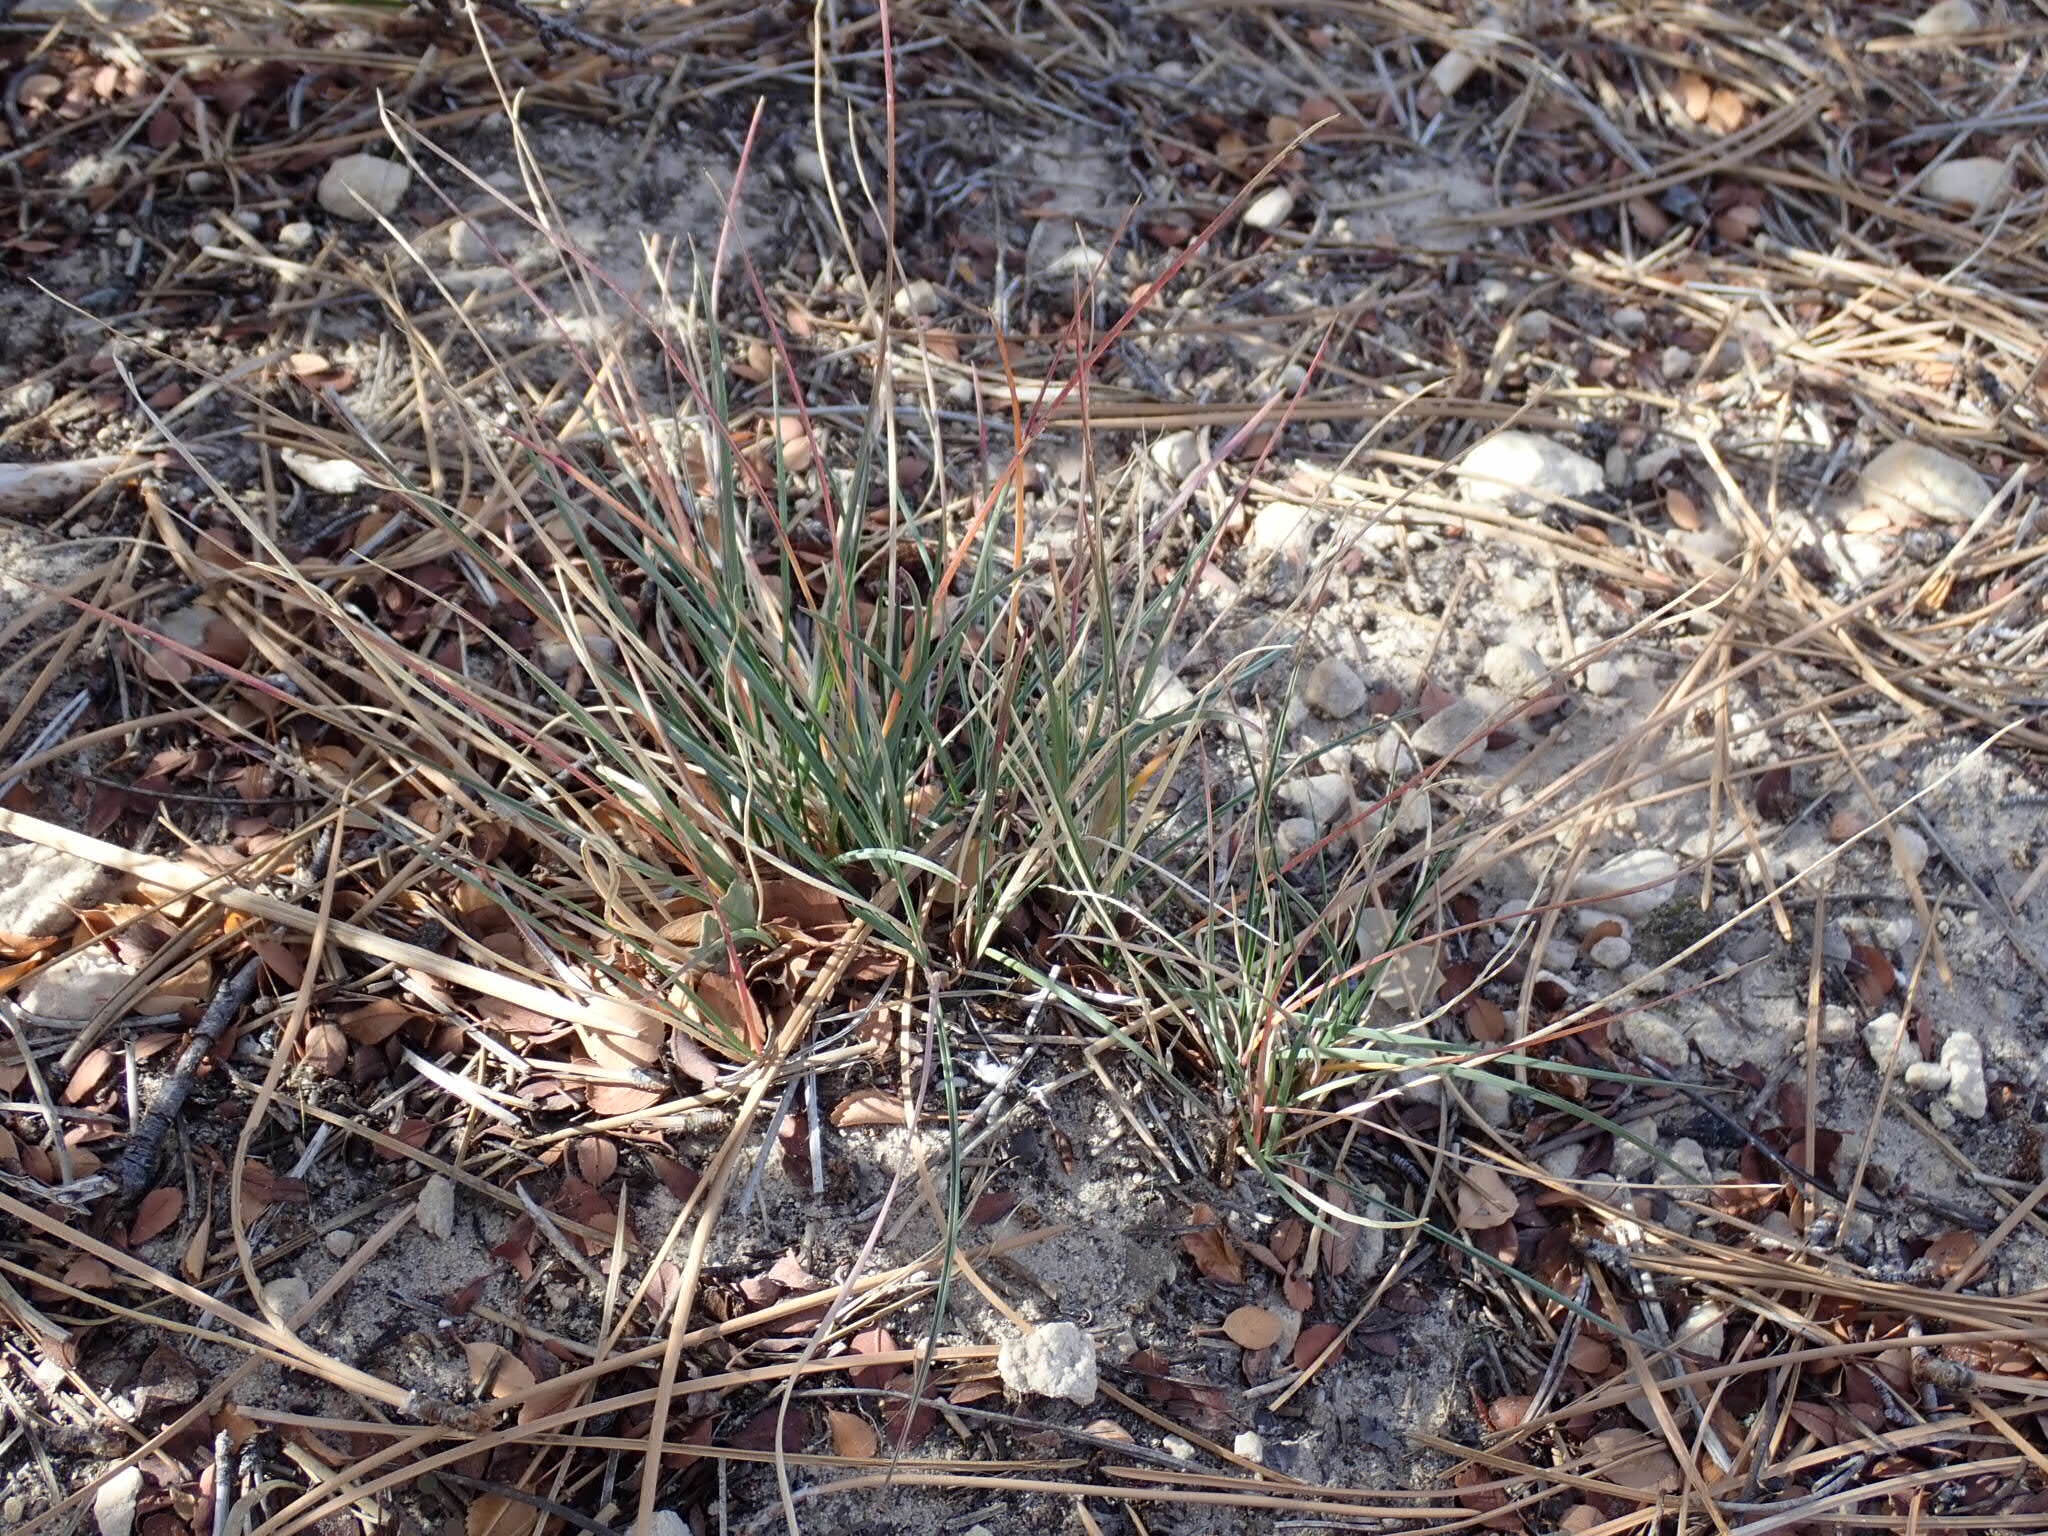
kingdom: Plantae
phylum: Tracheophyta
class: Liliopsida
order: Poales
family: Poaceae
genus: Poa
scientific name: Poa secunda
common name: Sandberg bluegrass
